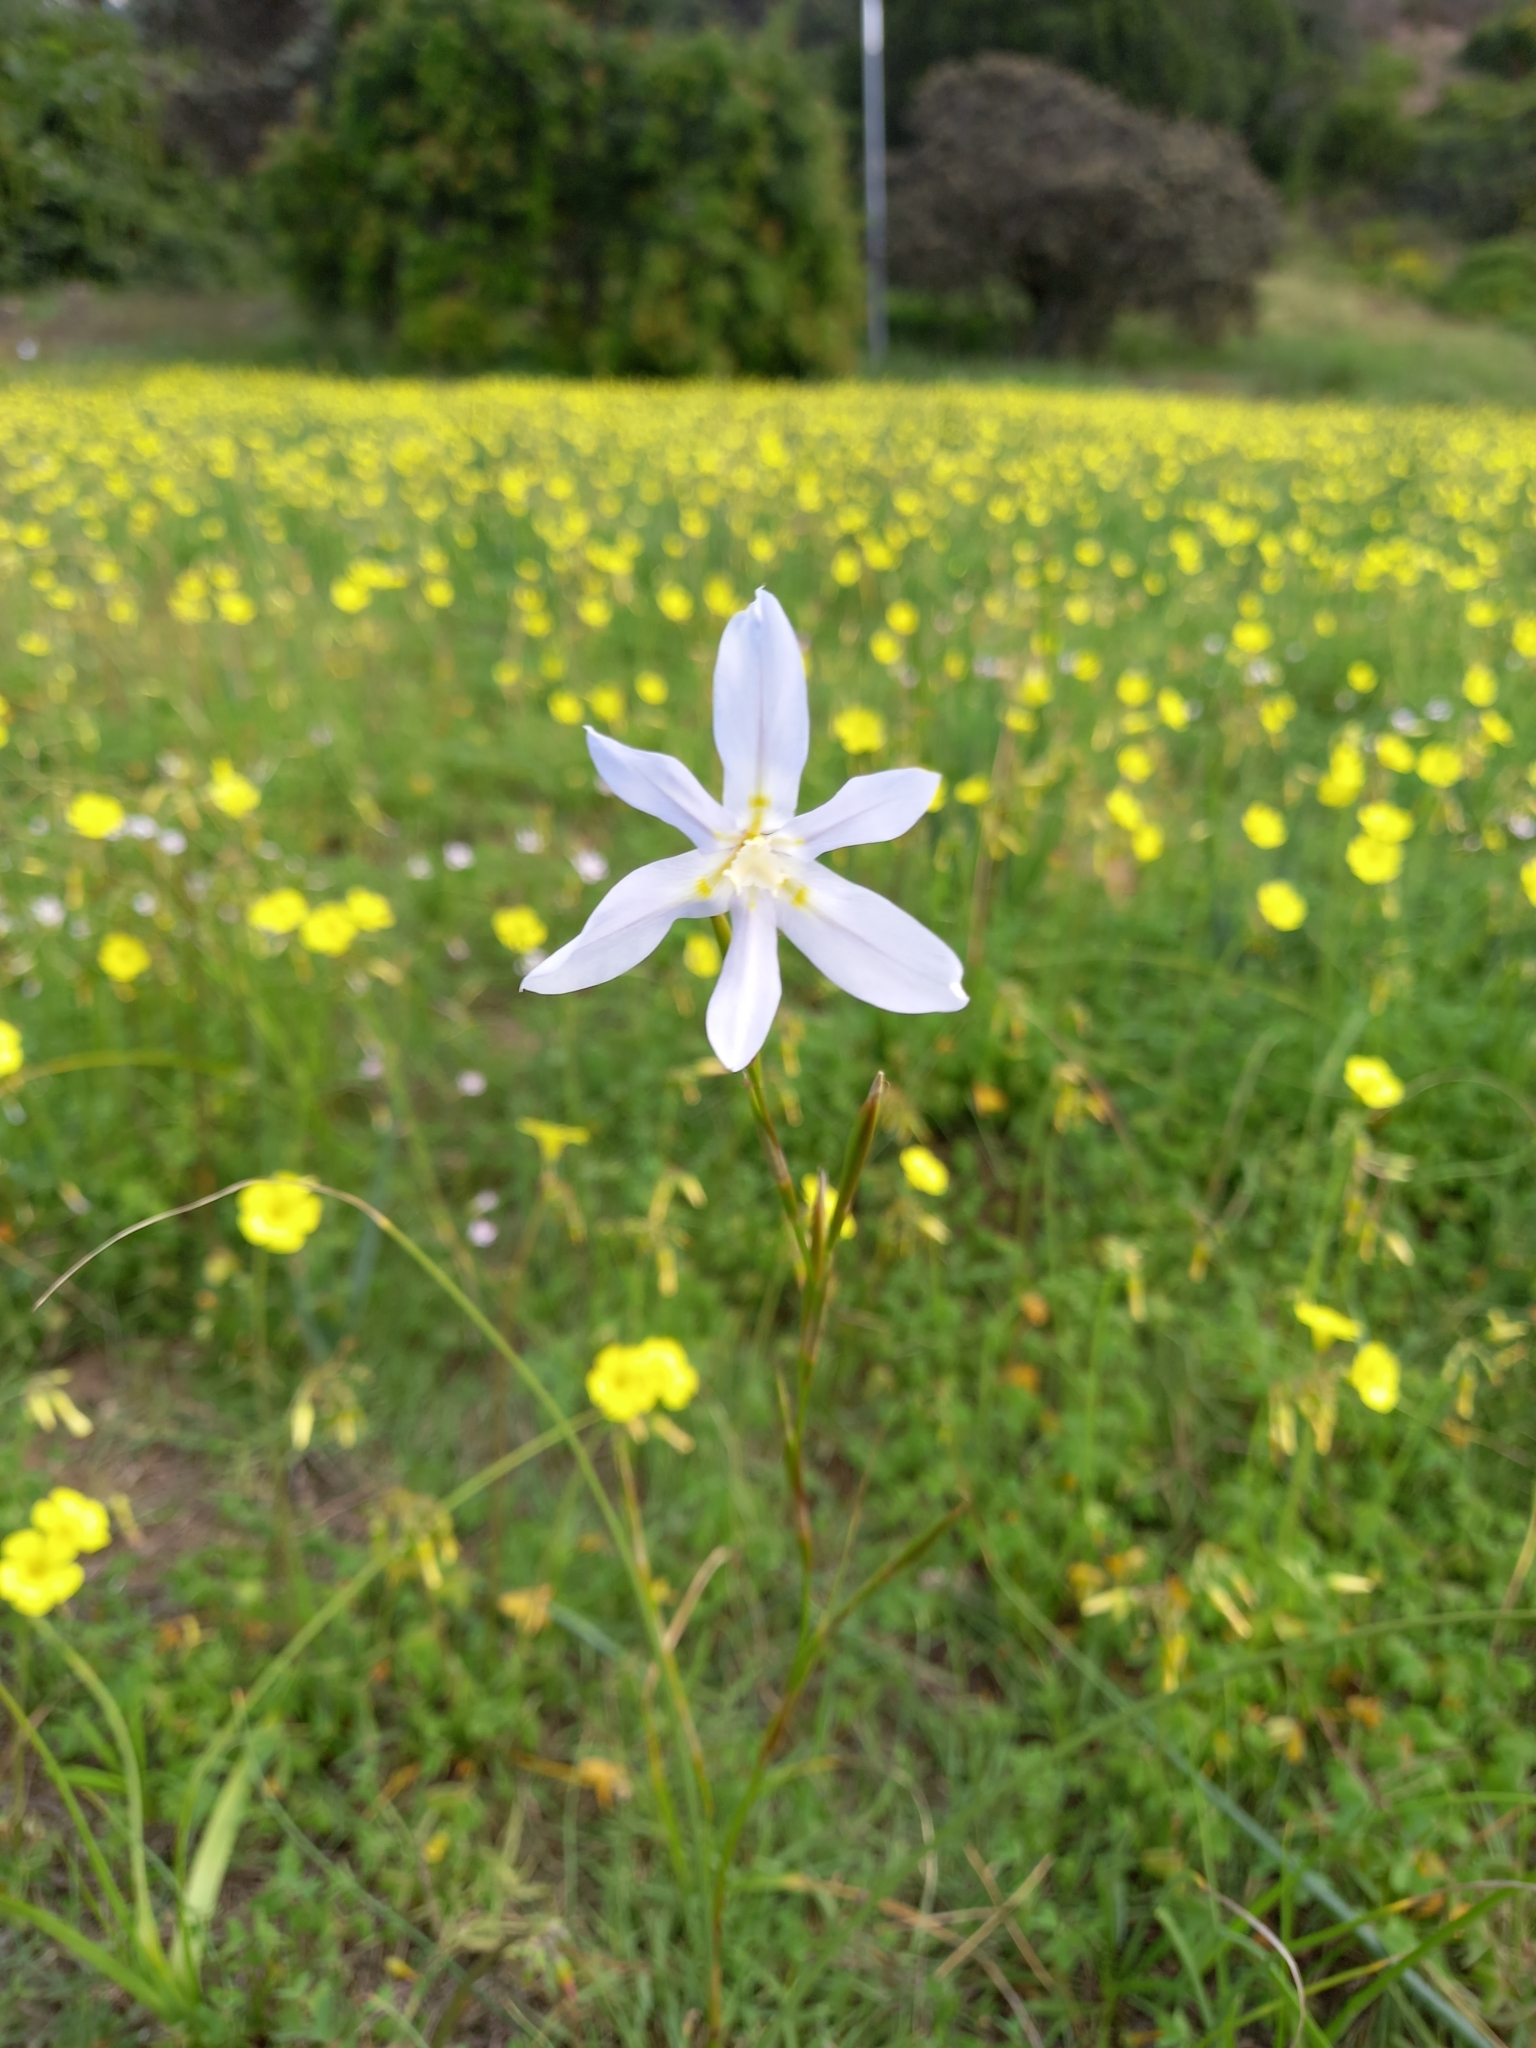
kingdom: Plantae
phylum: Tracheophyta
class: Liliopsida
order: Asparagales
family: Iridaceae
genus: Moraea
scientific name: Moraea polyanthos
